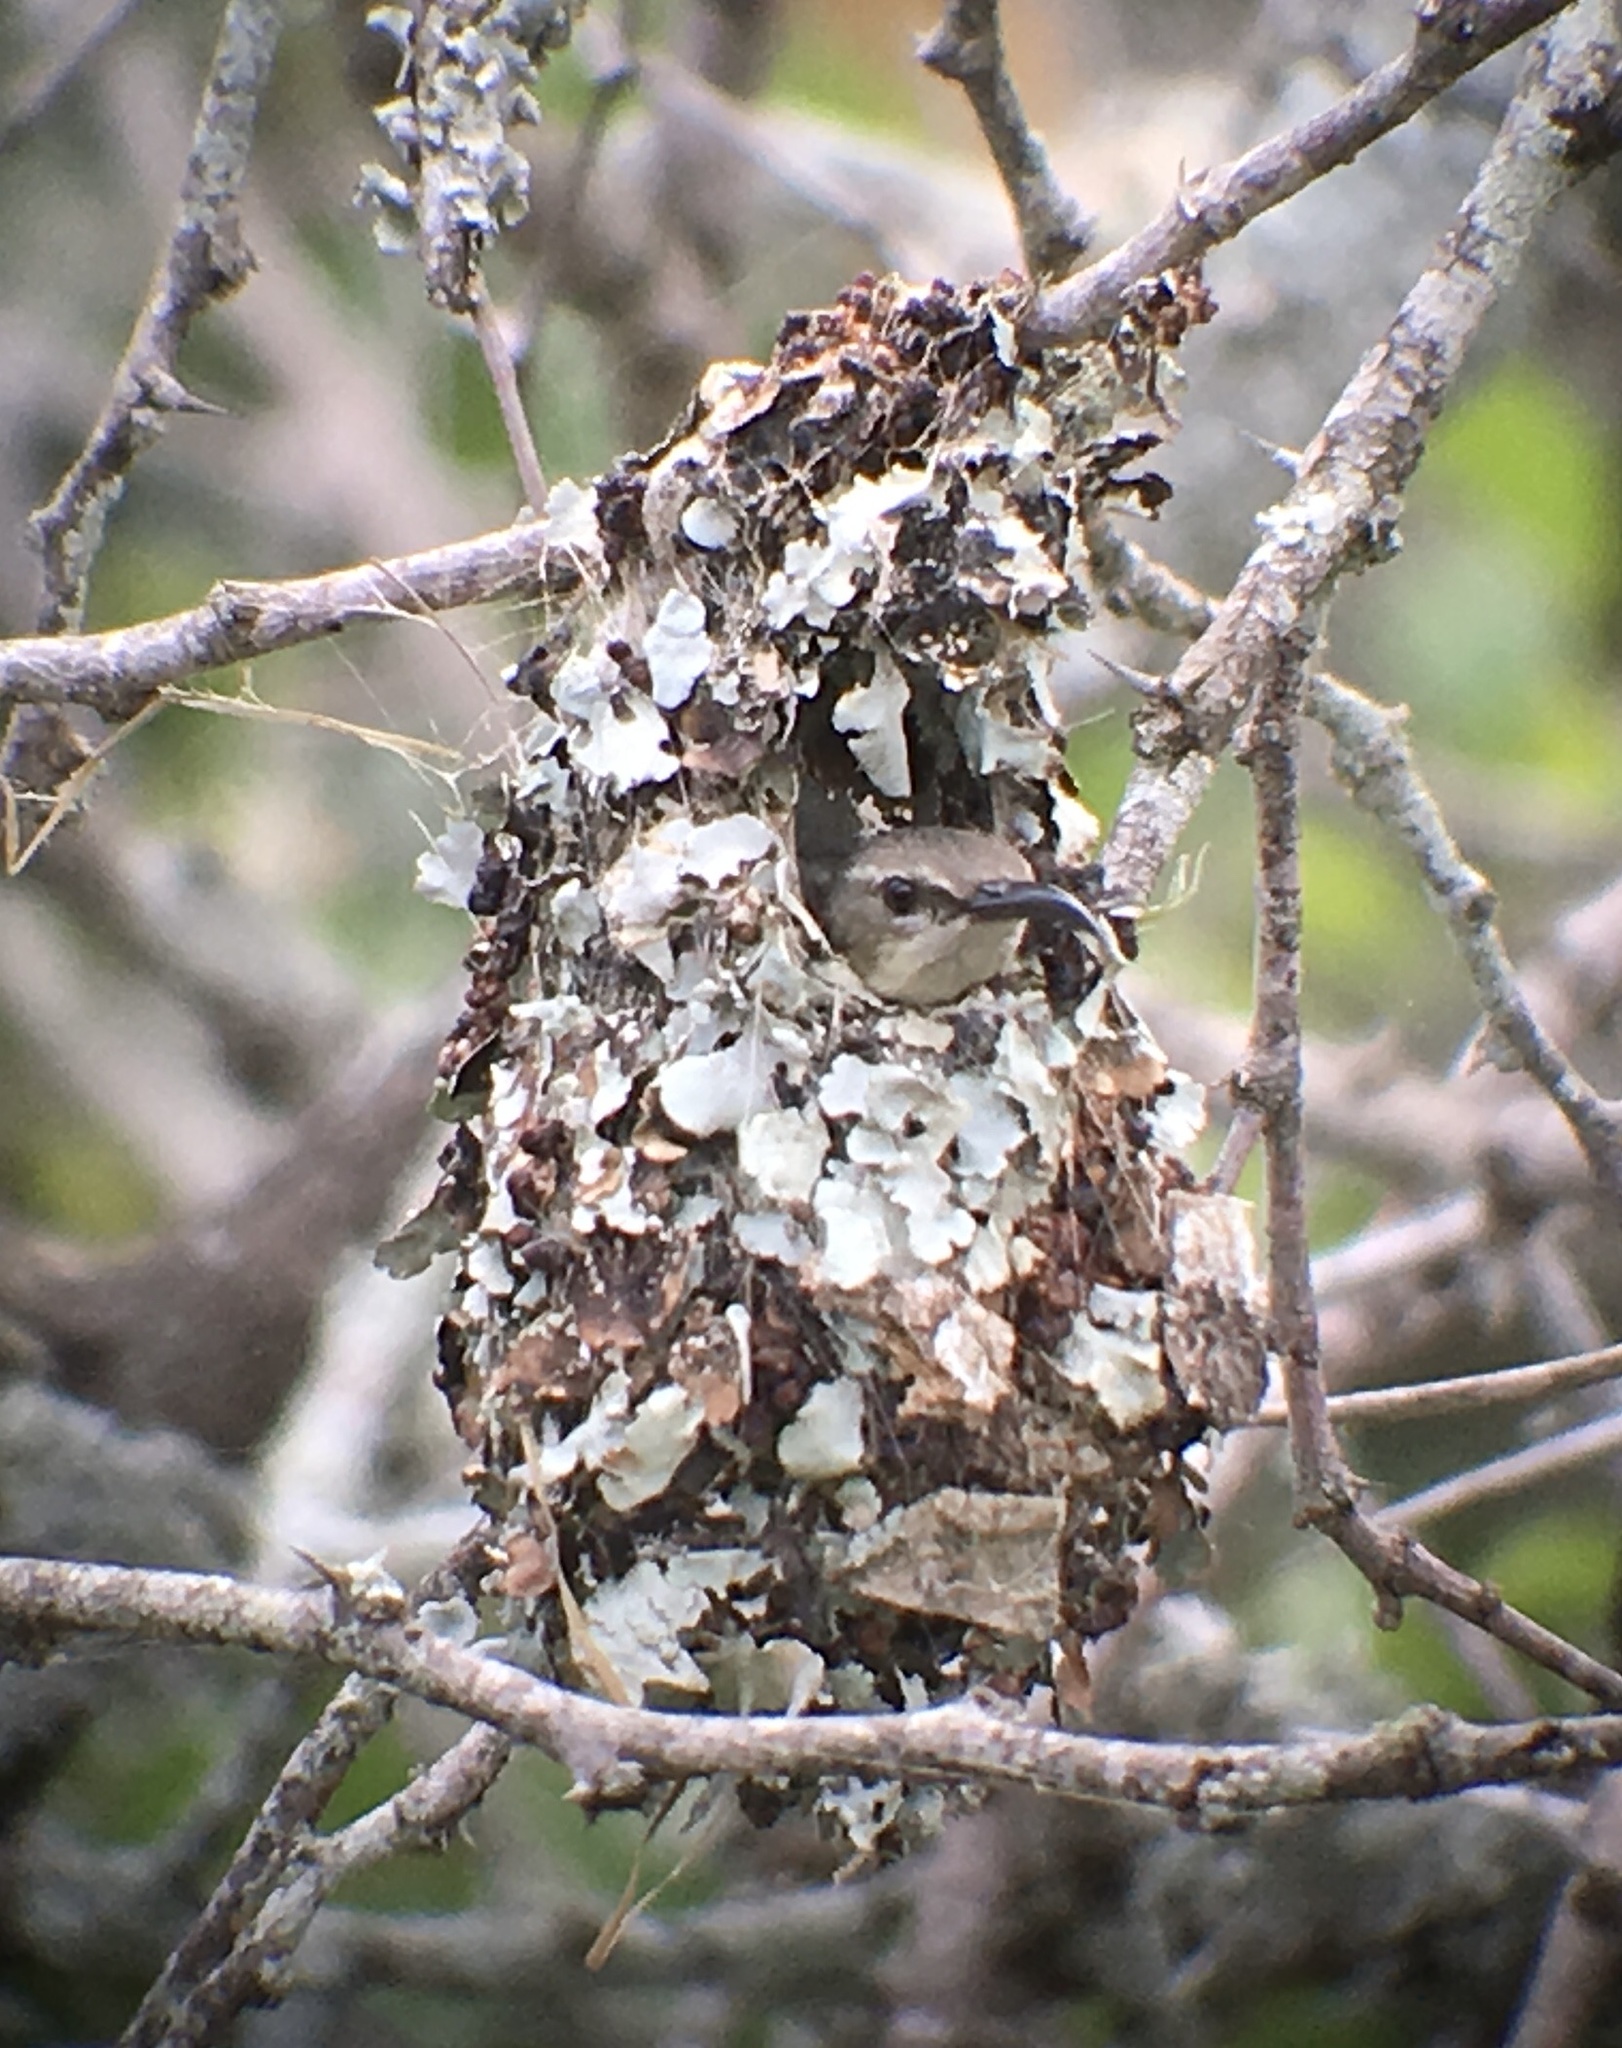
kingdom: Animalia
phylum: Chordata
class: Aves
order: Passeriformes
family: Nectariniidae
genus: Chalcomitra
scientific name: Chalcomitra amethystina
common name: Amethyst sunbird
